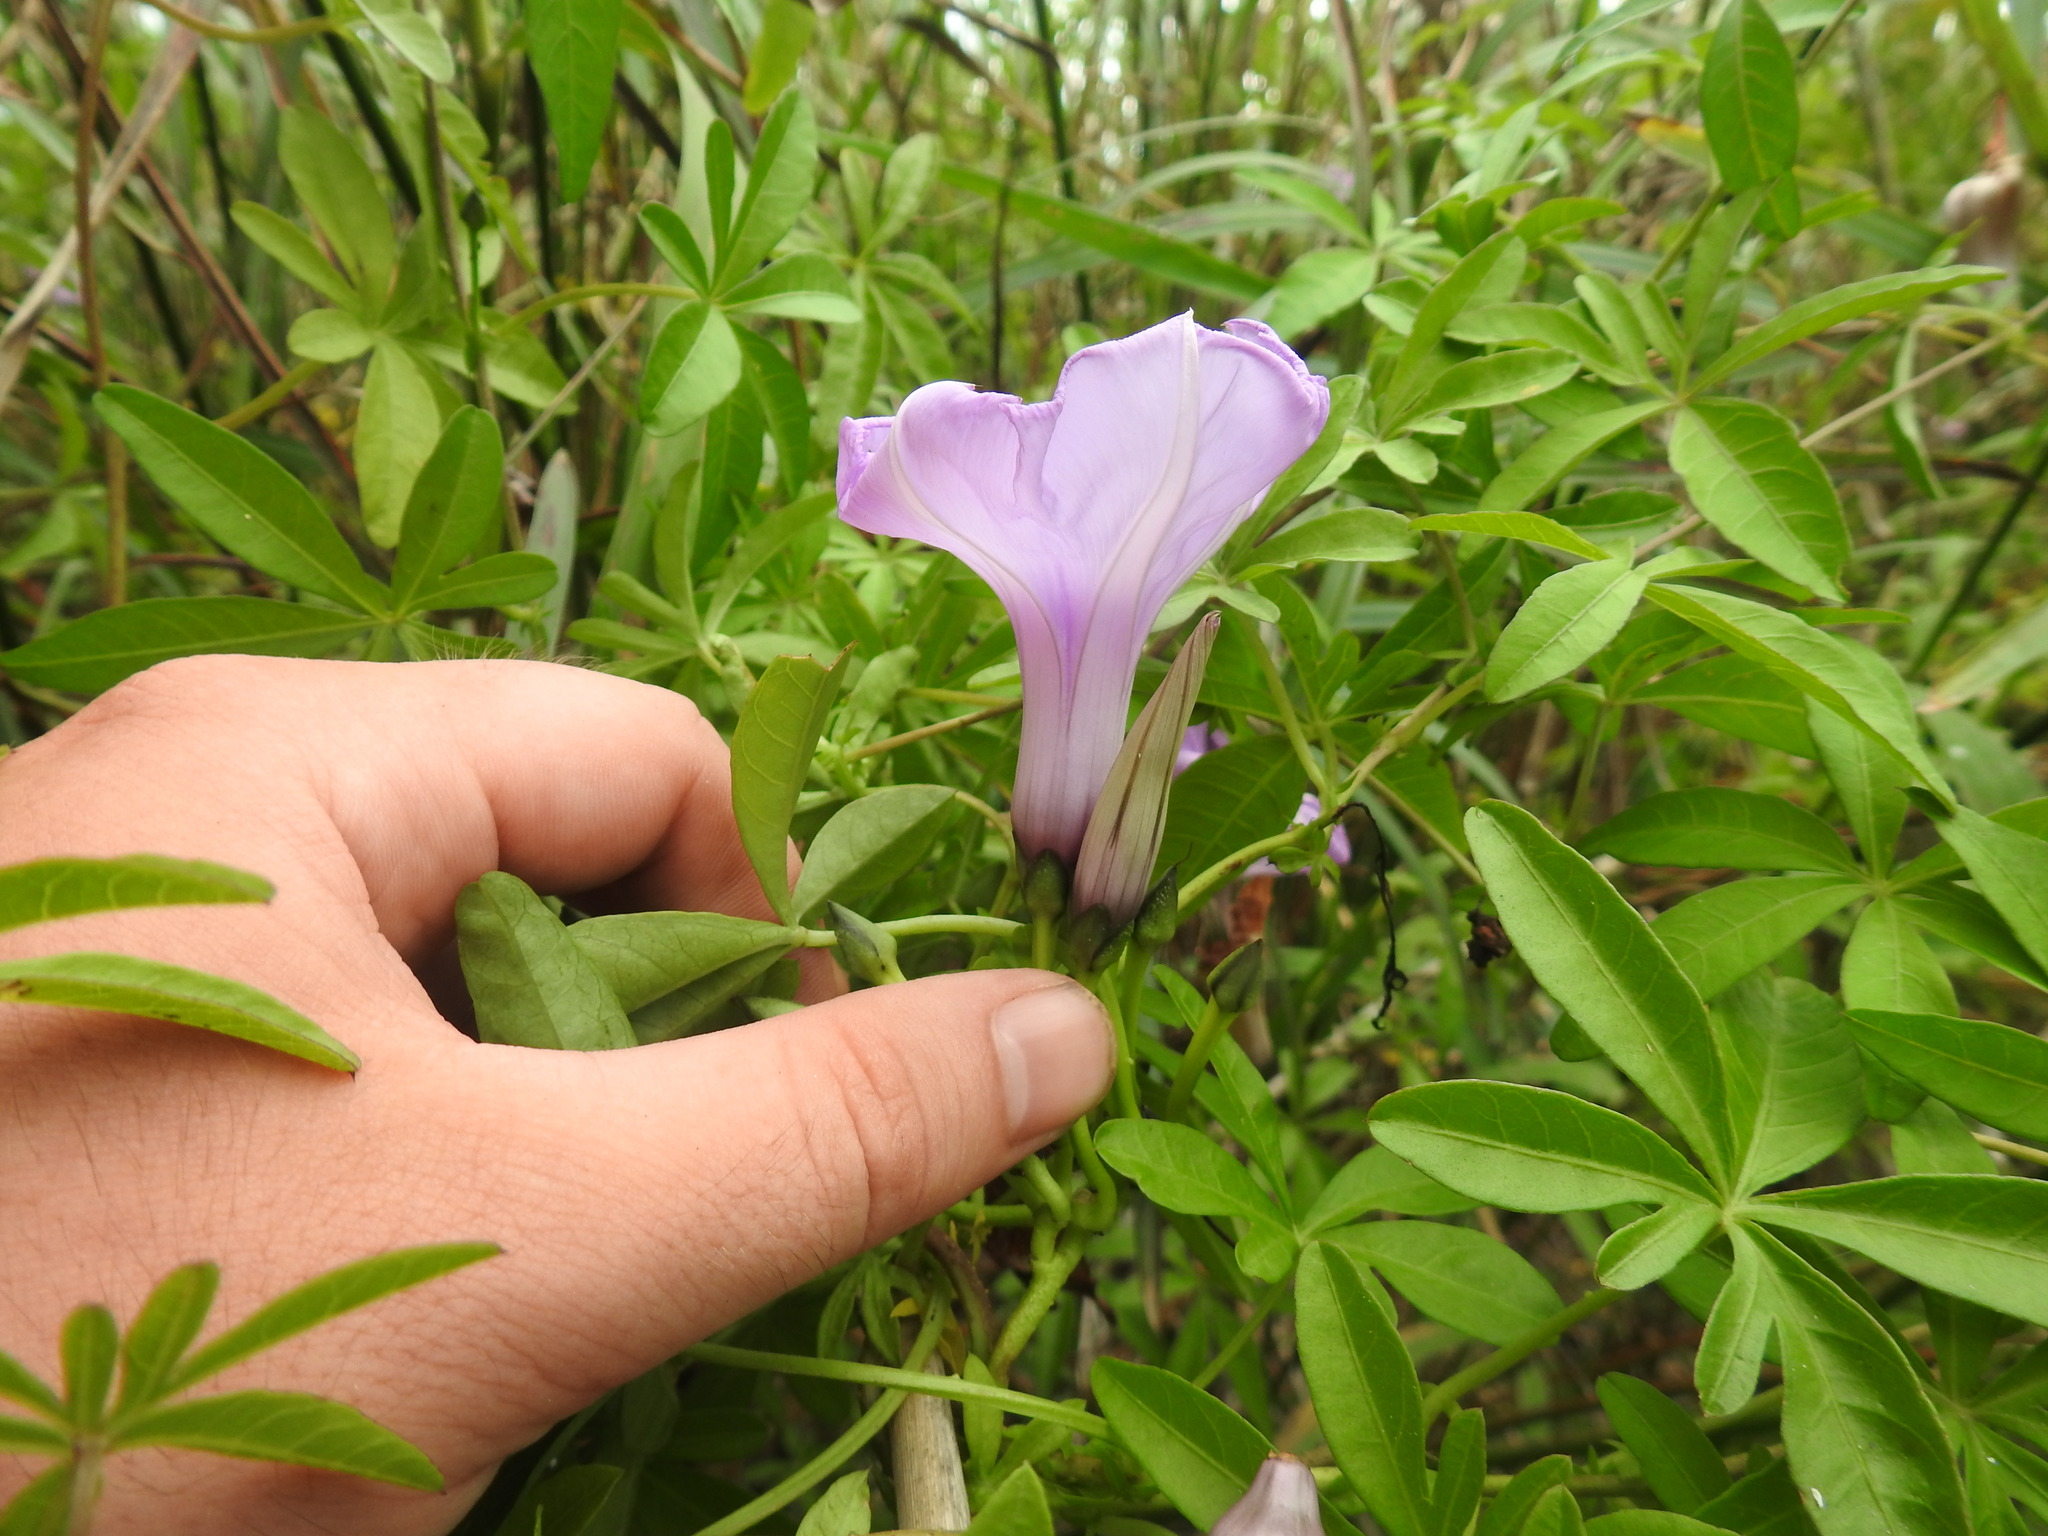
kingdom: Plantae
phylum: Tracheophyta
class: Magnoliopsida
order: Solanales
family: Convolvulaceae
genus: Ipomoea
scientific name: Ipomoea cairica
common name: Mile a minute vine
